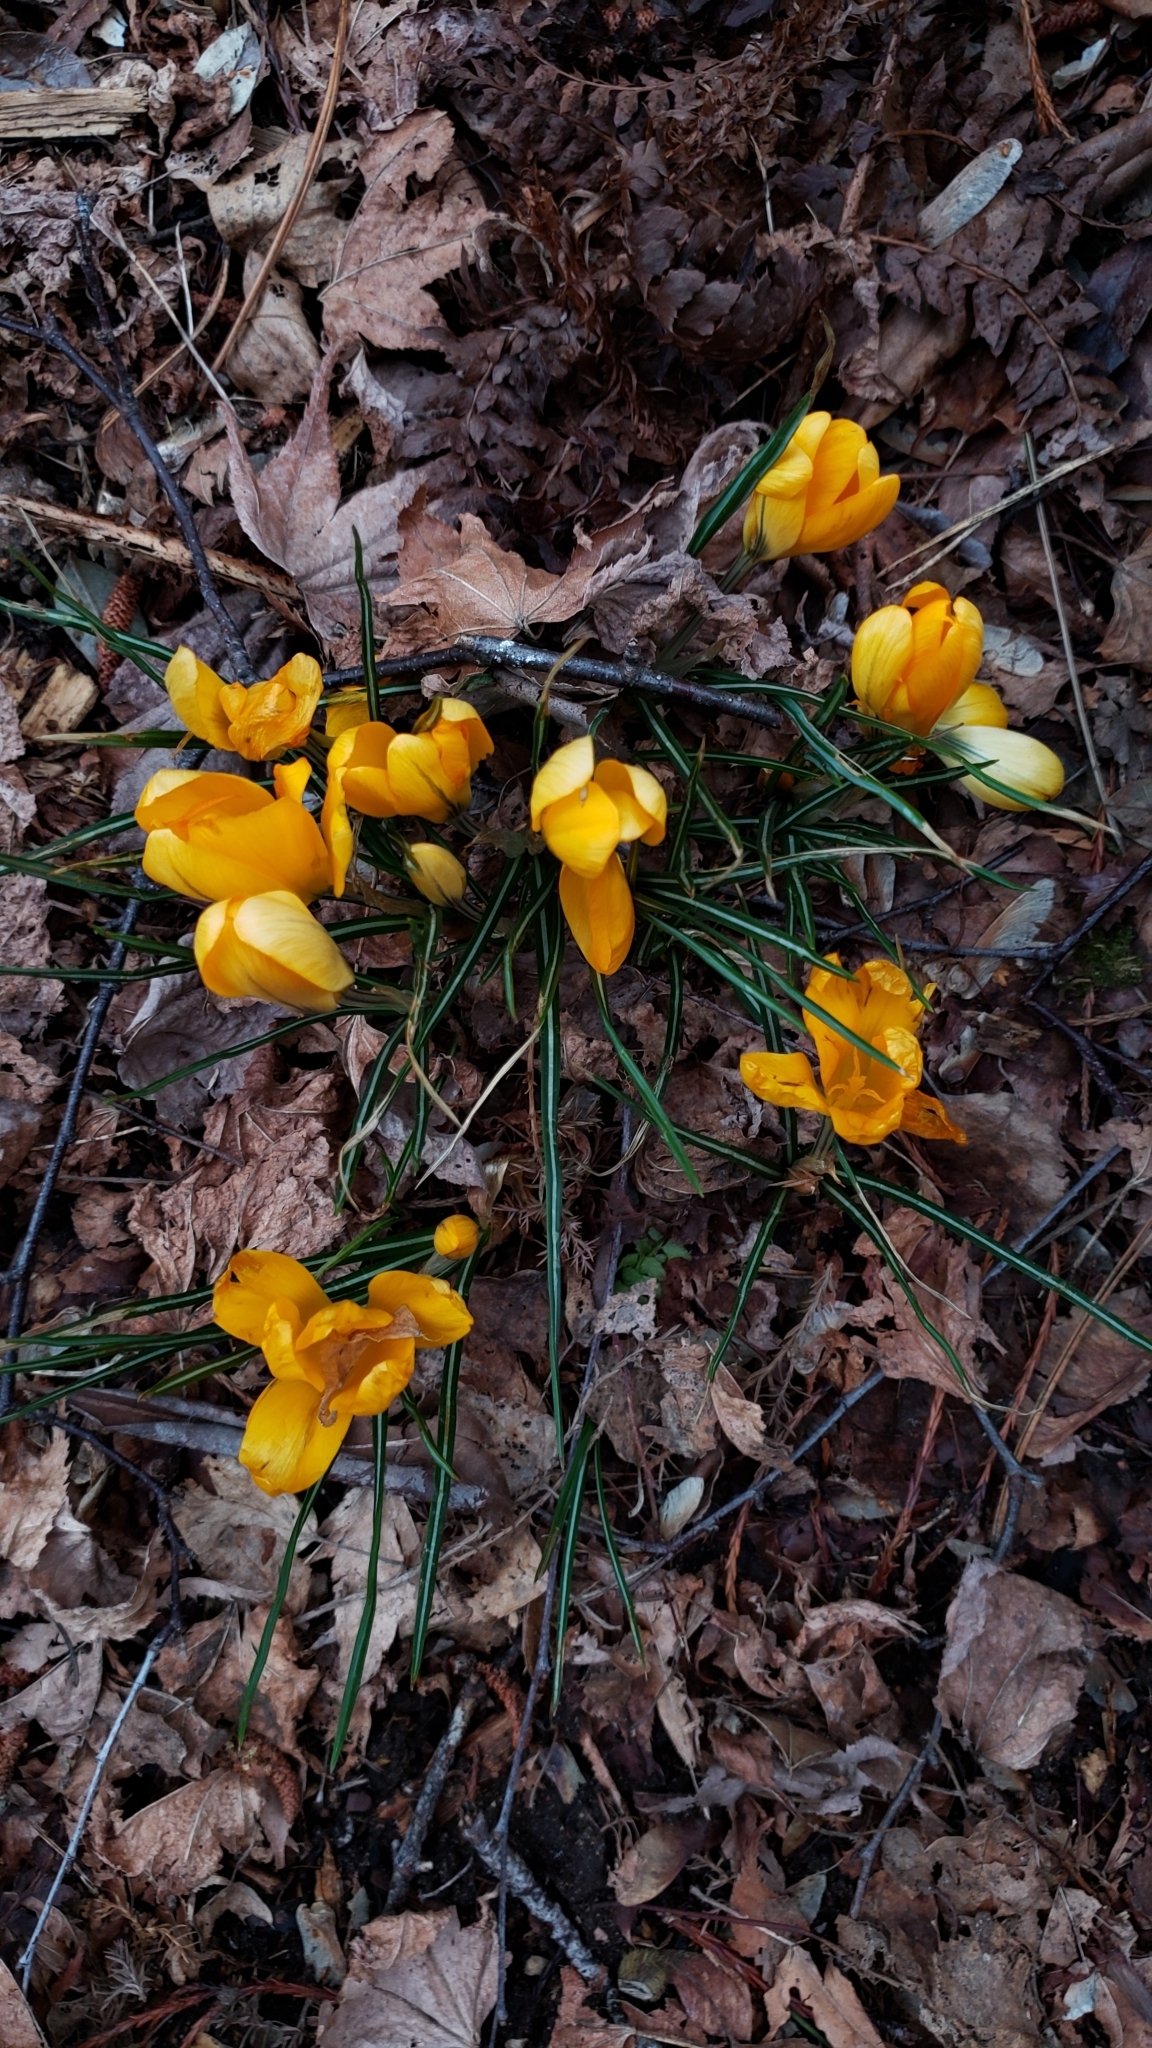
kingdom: Plantae
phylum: Tracheophyta
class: Liliopsida
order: Asparagales
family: Iridaceae
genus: Crocus
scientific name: Crocus luteus
